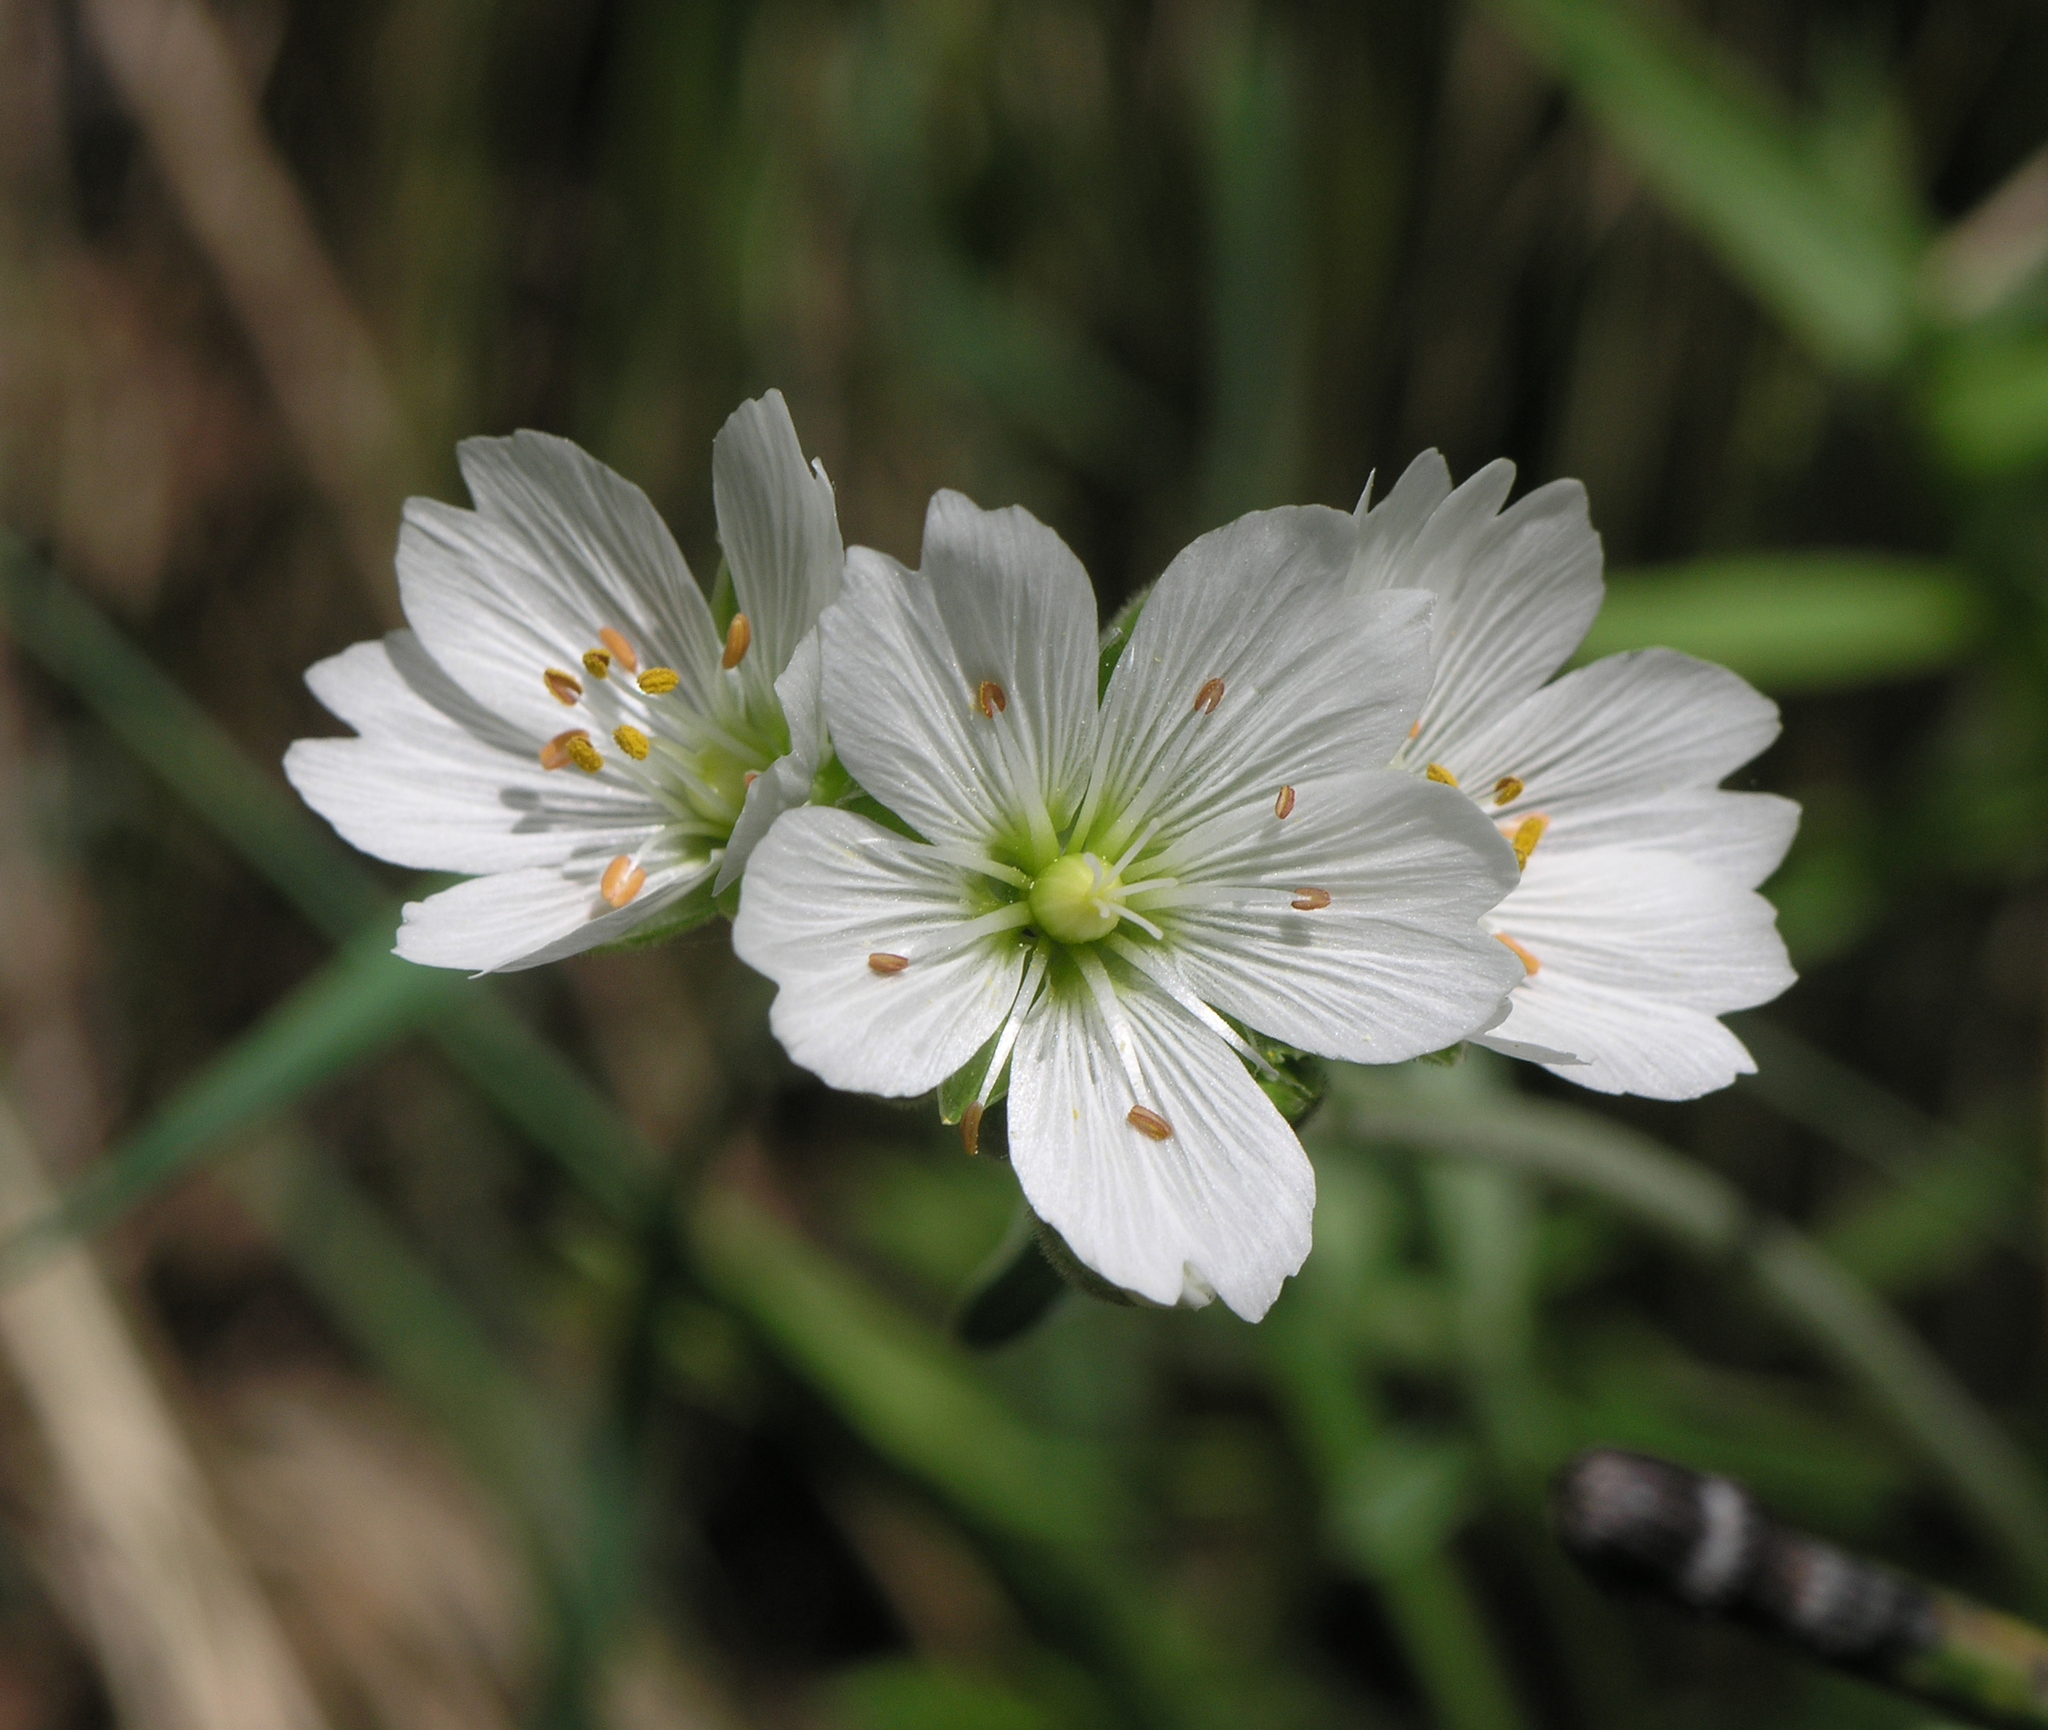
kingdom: Plantae
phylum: Tracheophyta
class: Magnoliopsida
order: Caryophyllales
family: Caryophyllaceae
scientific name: Caryophyllaceae
